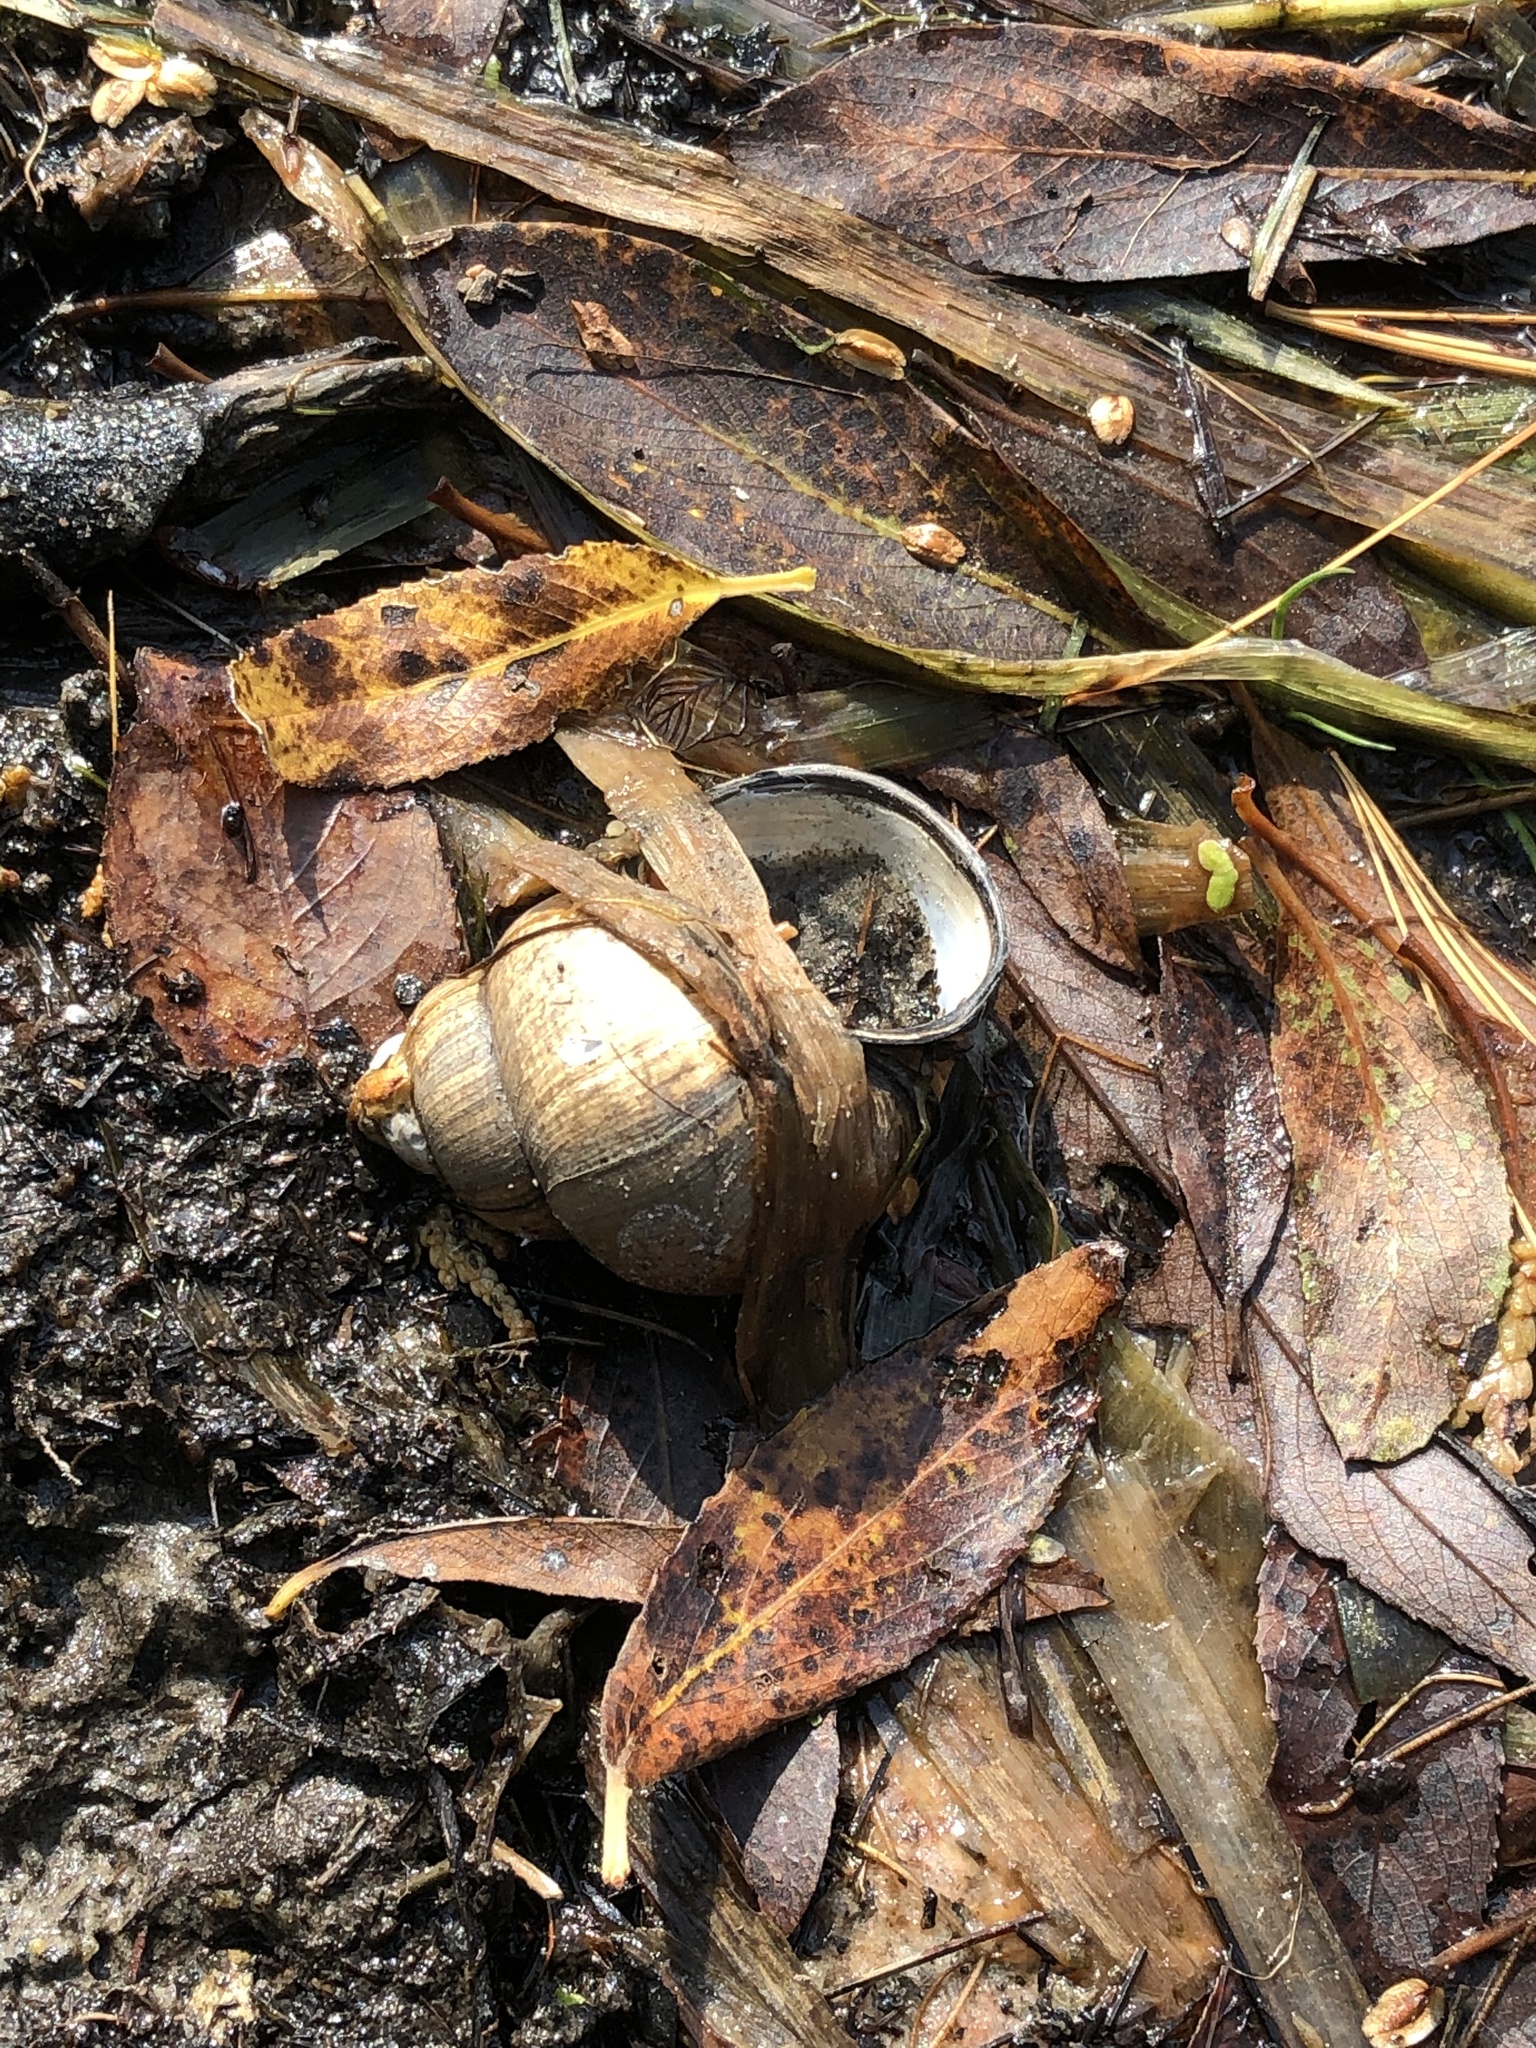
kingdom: Animalia
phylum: Mollusca
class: Gastropoda
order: Architaenioglossa
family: Viviparidae
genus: Cipangopaludina
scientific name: Cipangopaludina chinensis
